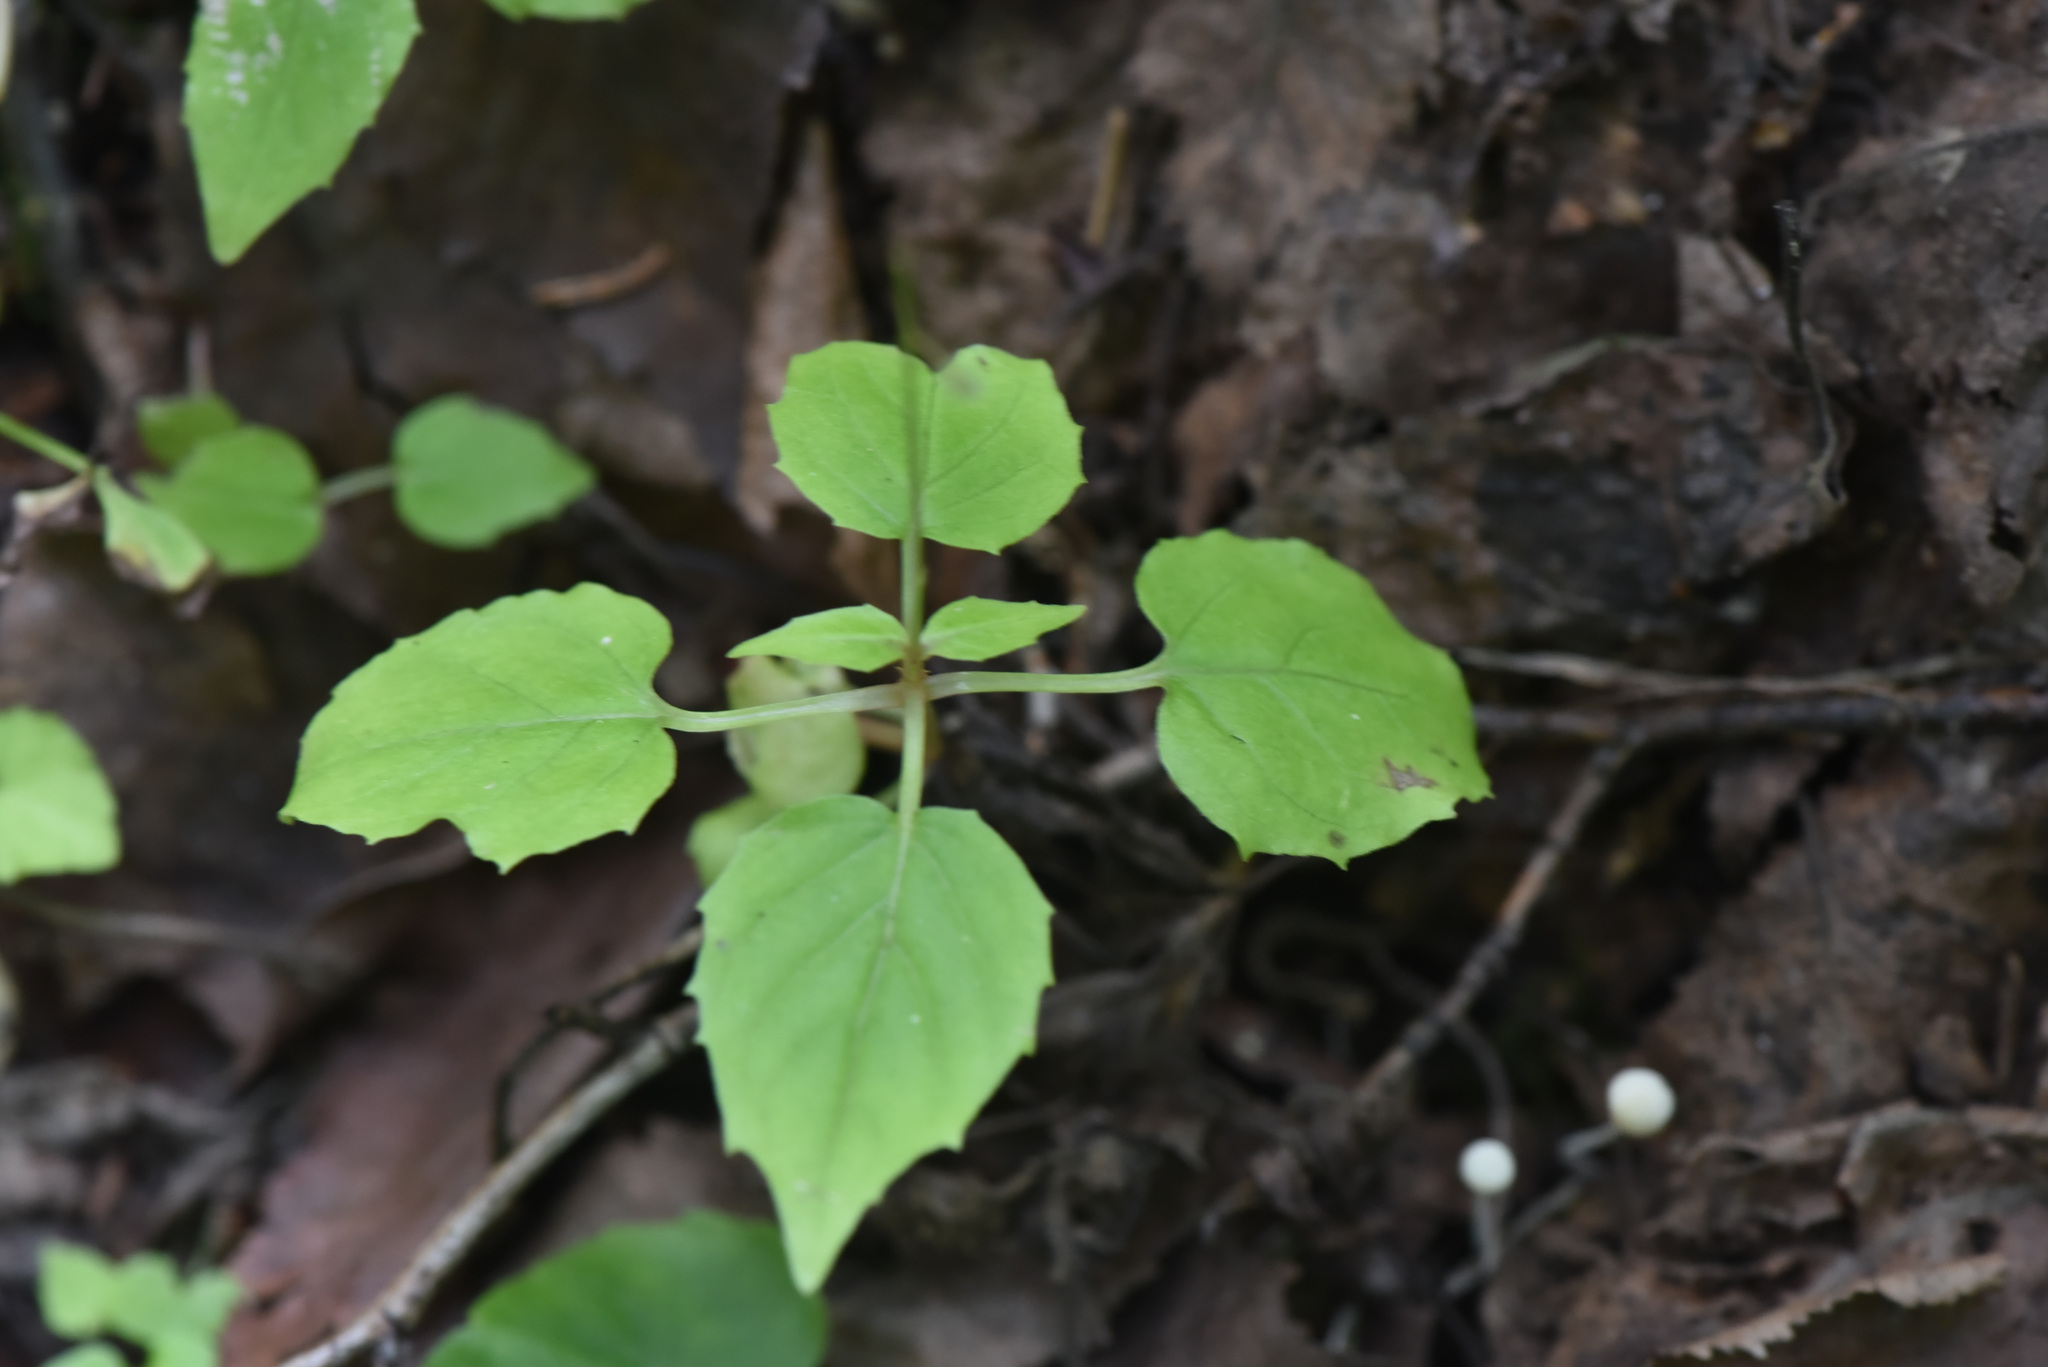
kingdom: Plantae
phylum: Tracheophyta
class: Magnoliopsida
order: Myrtales
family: Onagraceae
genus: Circaea
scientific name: Circaea alpina
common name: Alpine enchanter's-nightshade
